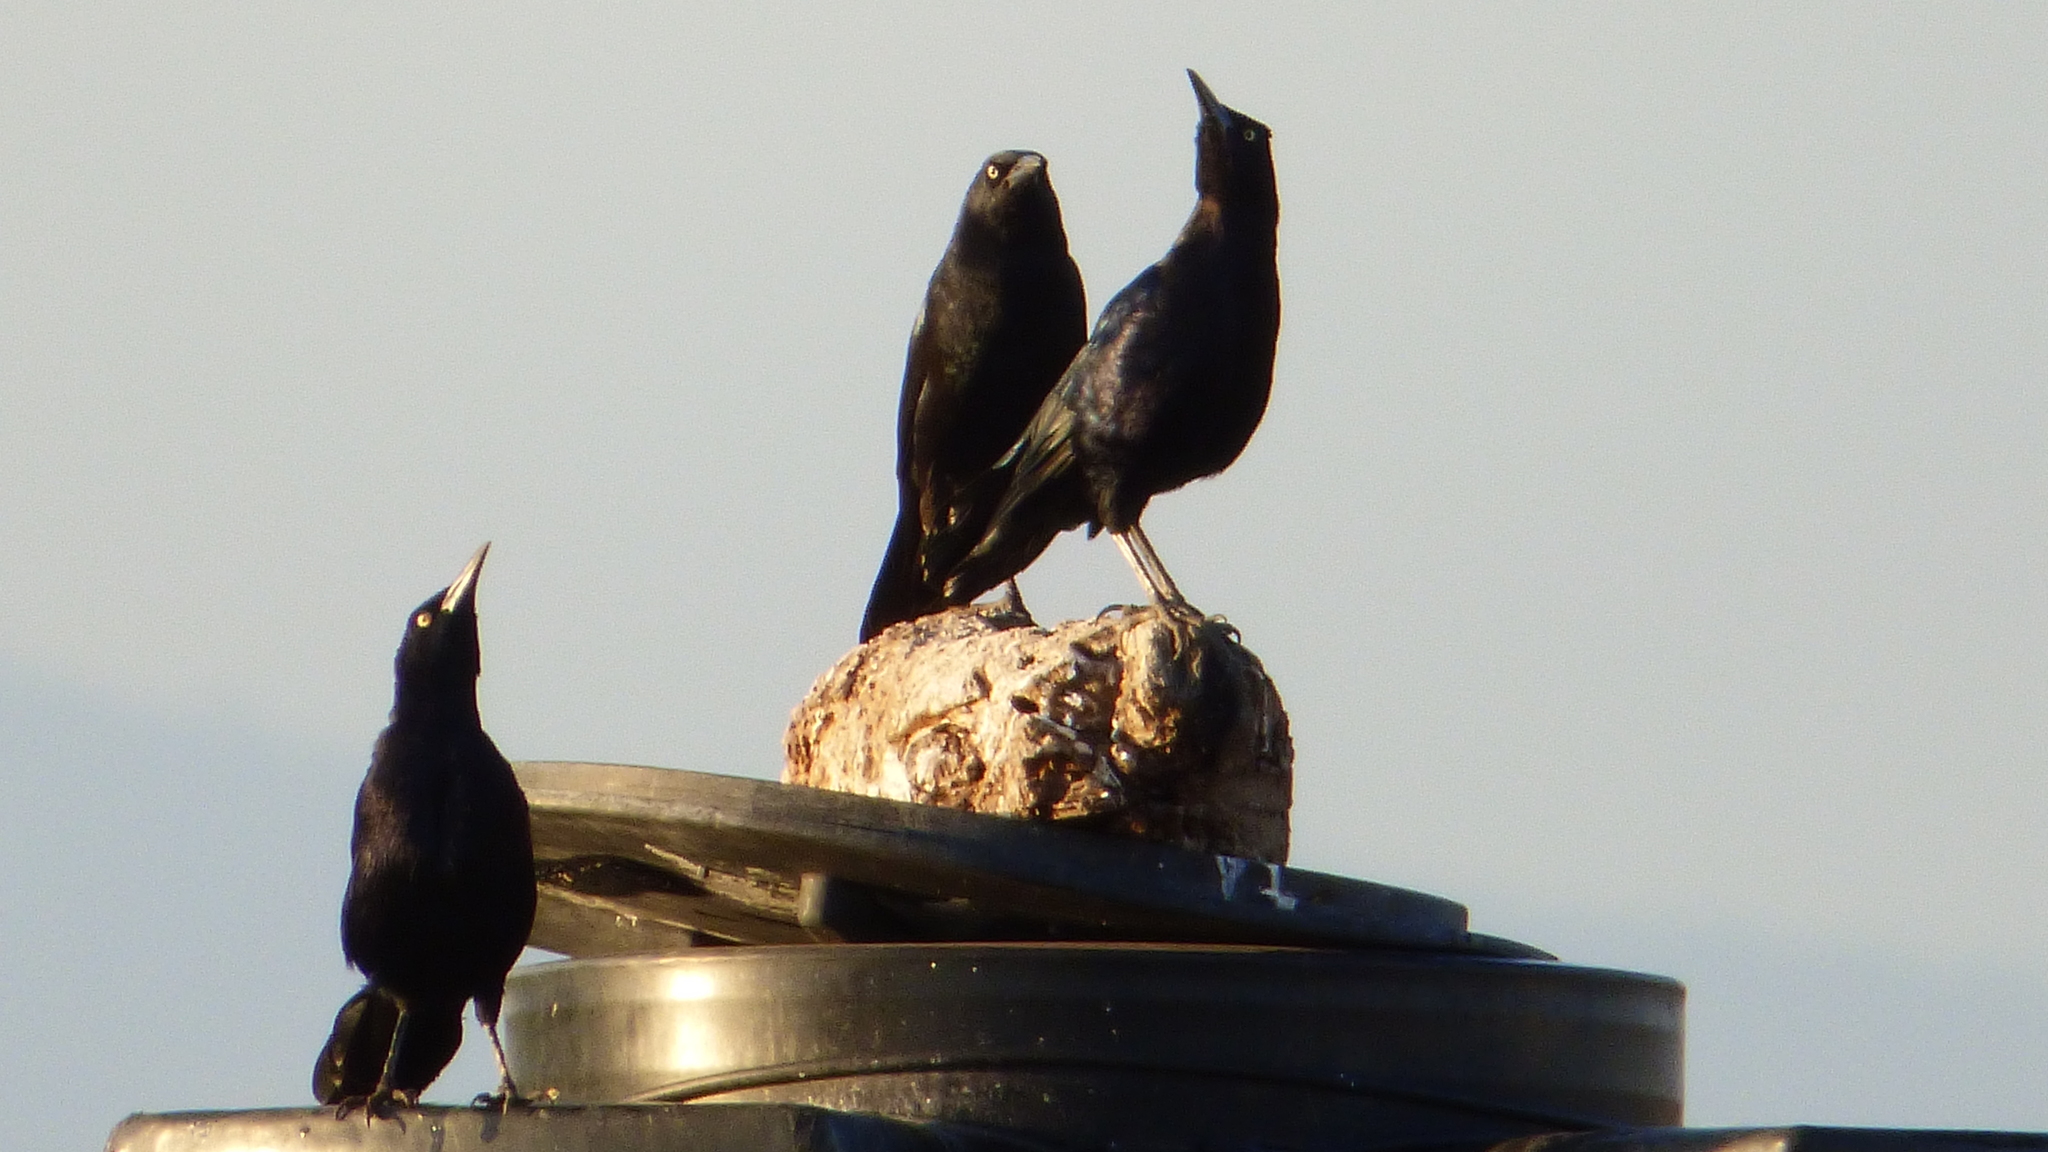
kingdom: Animalia
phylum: Chordata
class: Aves
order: Passeriformes
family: Icteridae
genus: Quiscalus
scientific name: Quiscalus mexicanus
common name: Great-tailed grackle
